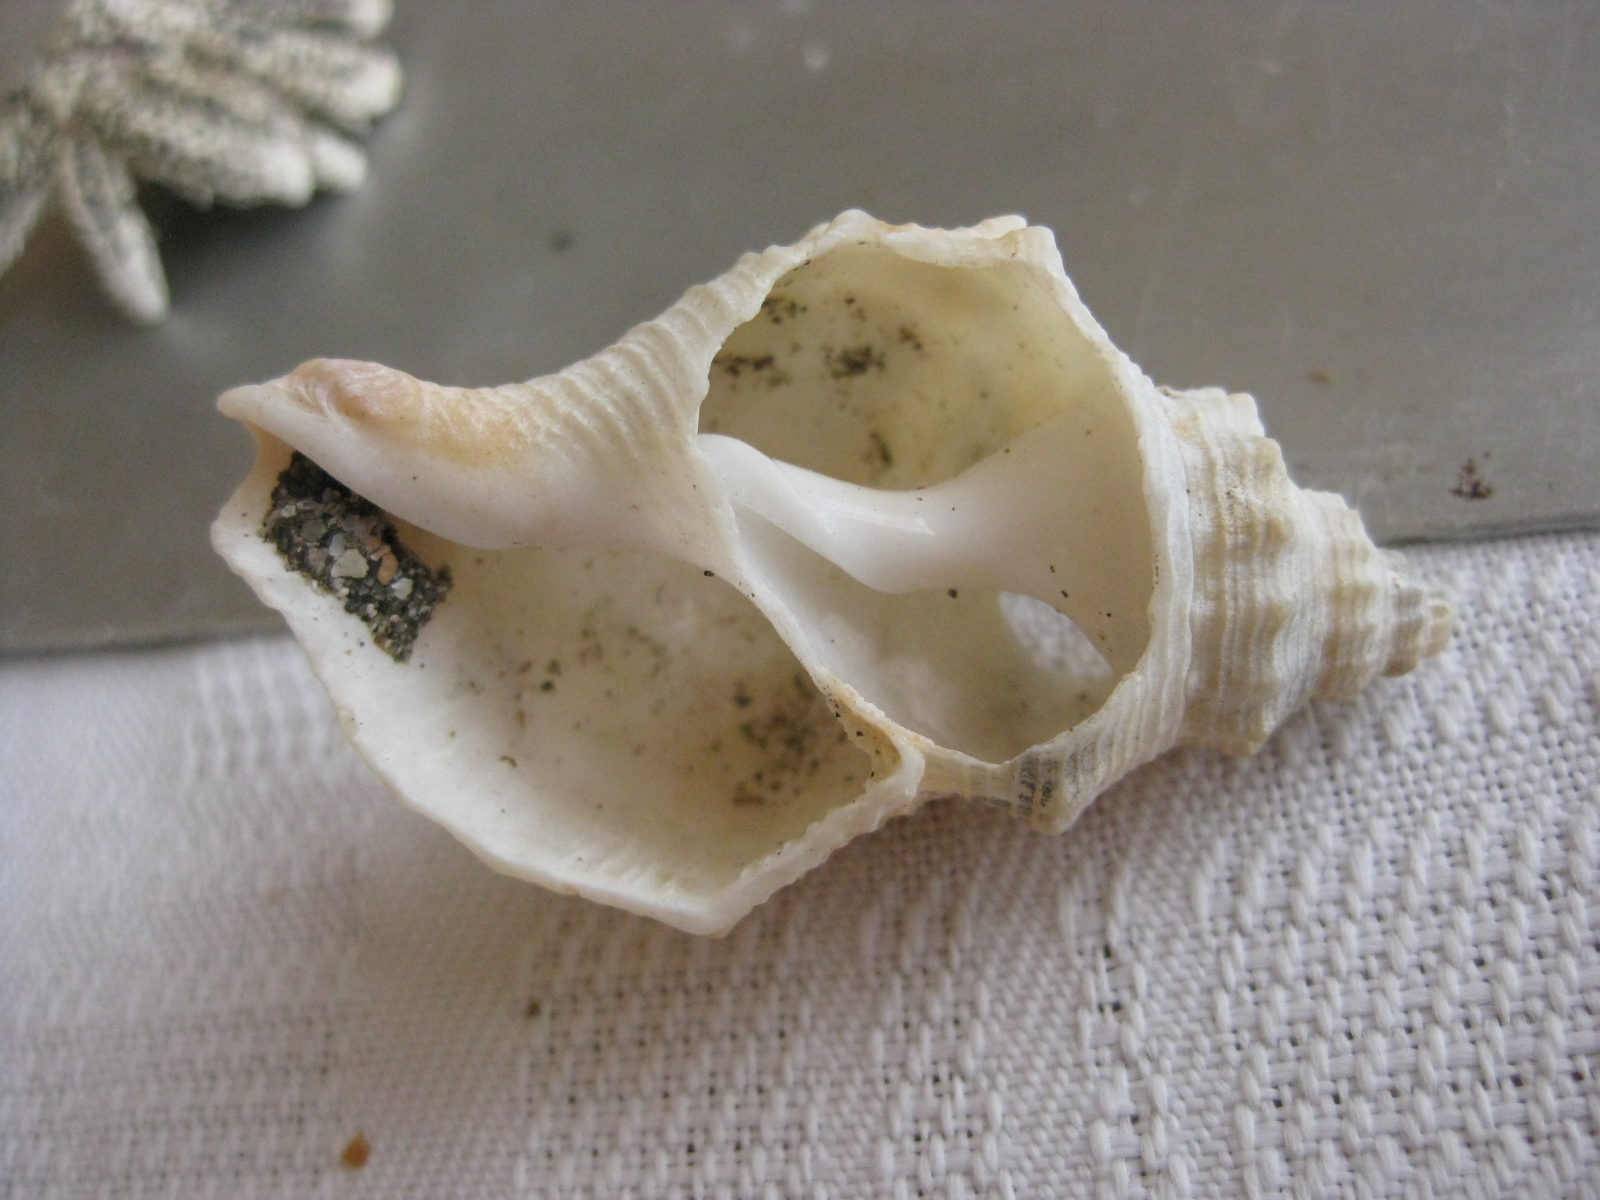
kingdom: Animalia
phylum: Mollusca
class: Gastropoda
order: Neogastropoda
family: Prosiphonidae
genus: Austrofusus
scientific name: Austrofusus glans
